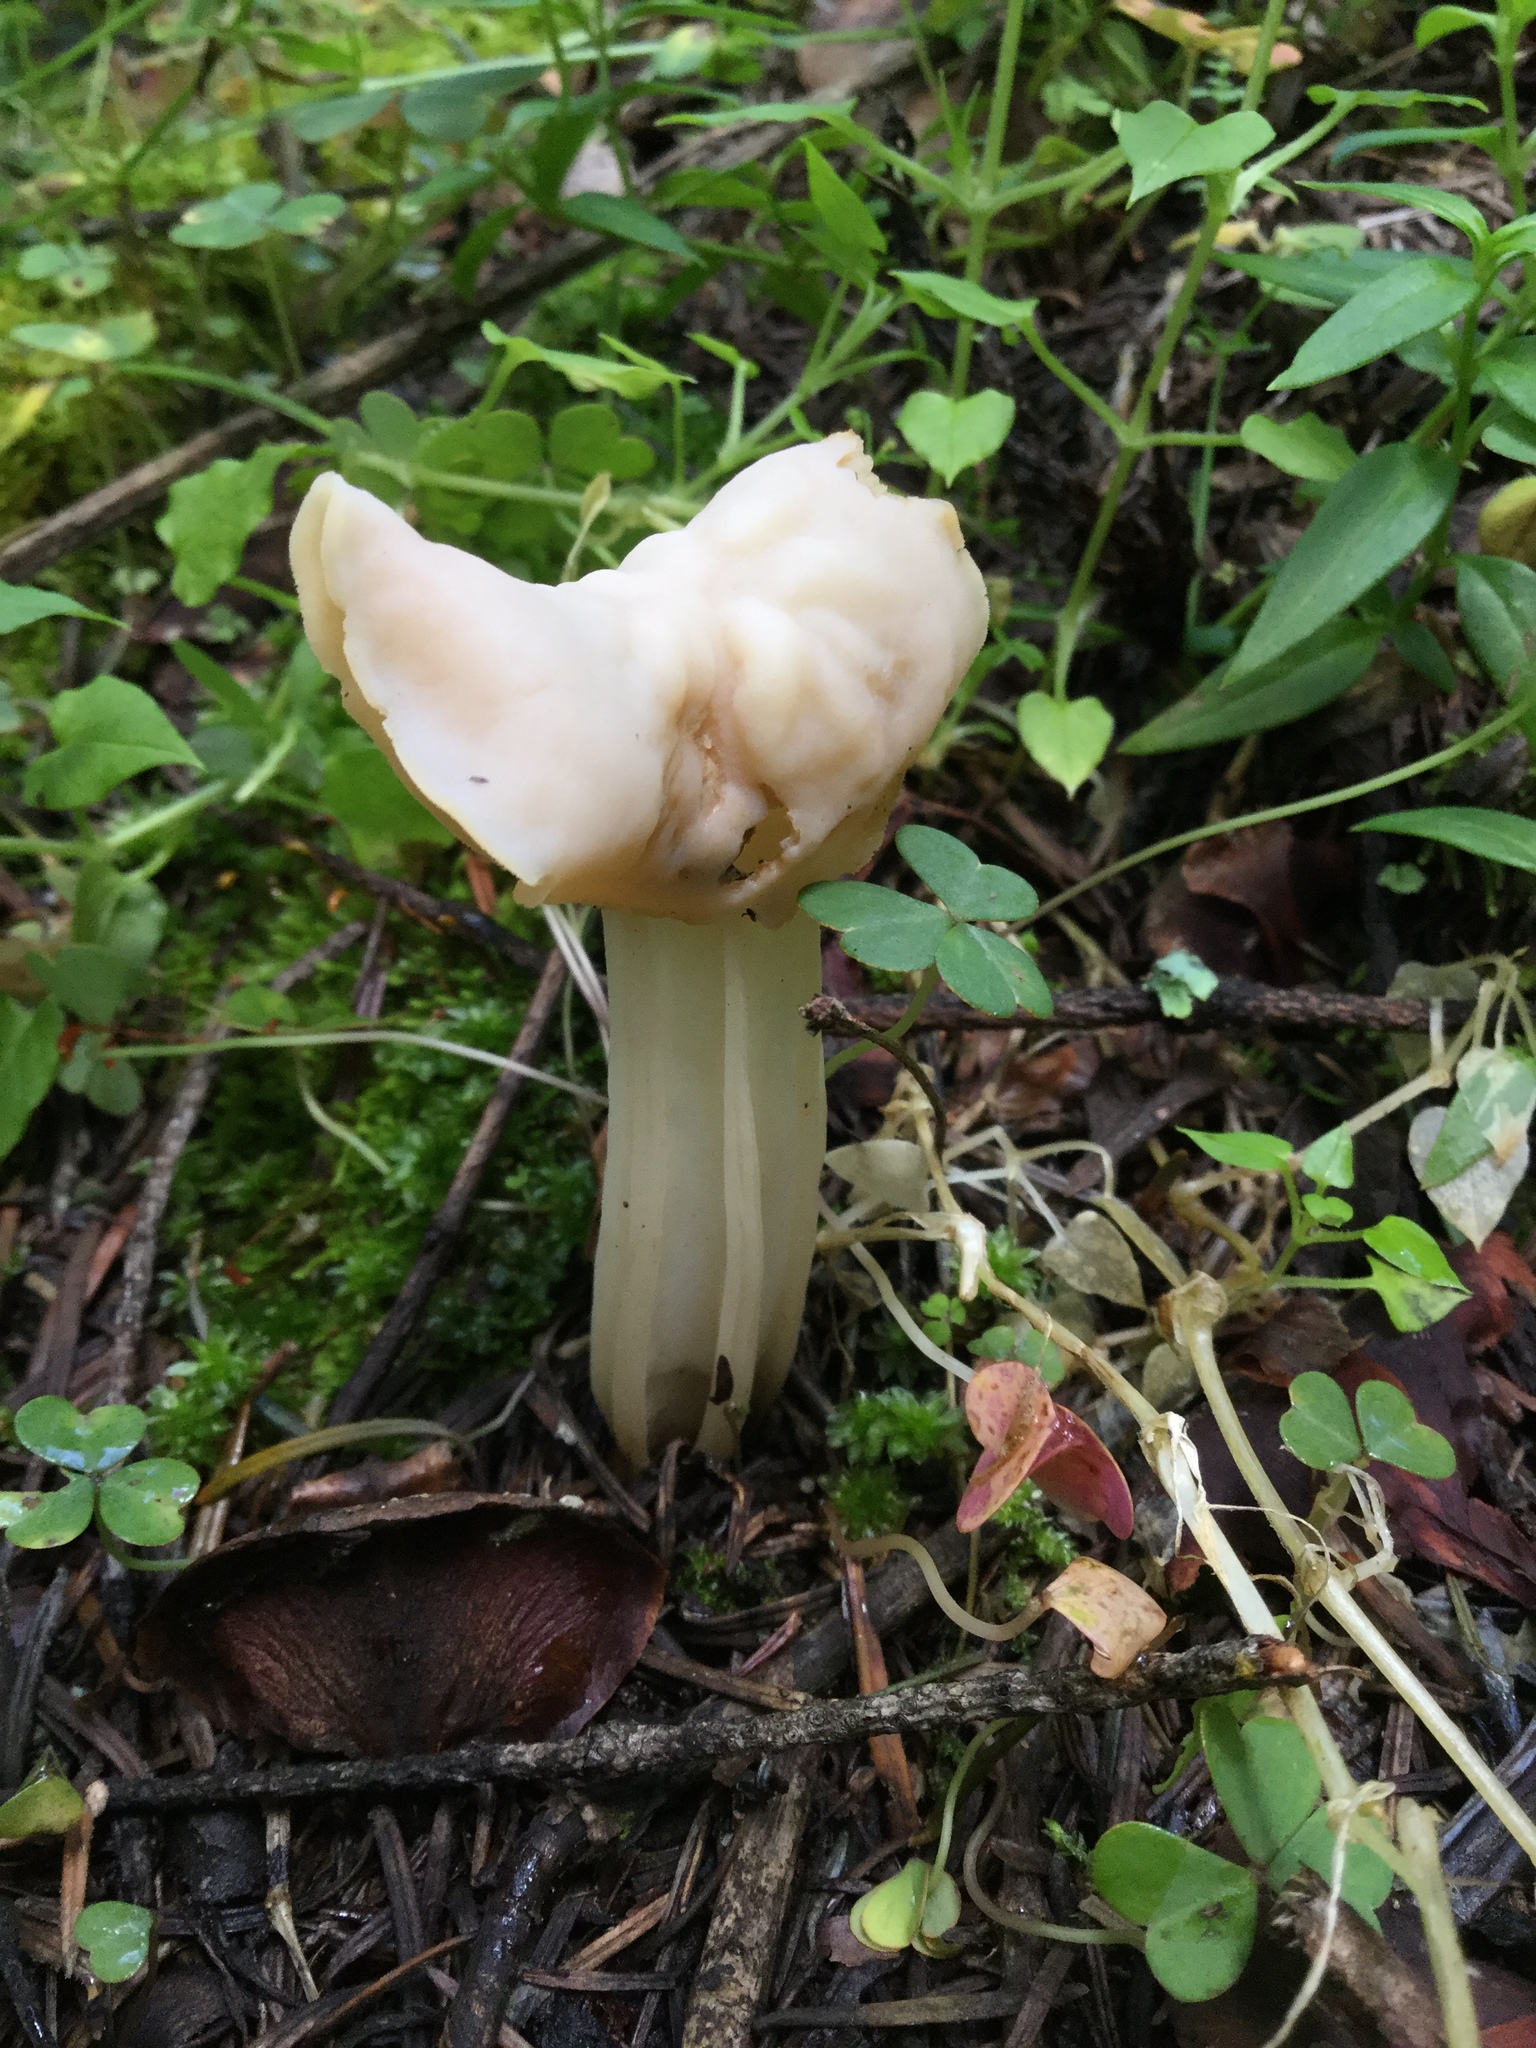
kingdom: Fungi
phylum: Ascomycota
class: Pezizomycetes
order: Pezizales
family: Helvellaceae
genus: Helvella
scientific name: Helvella crispa
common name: White saddle
